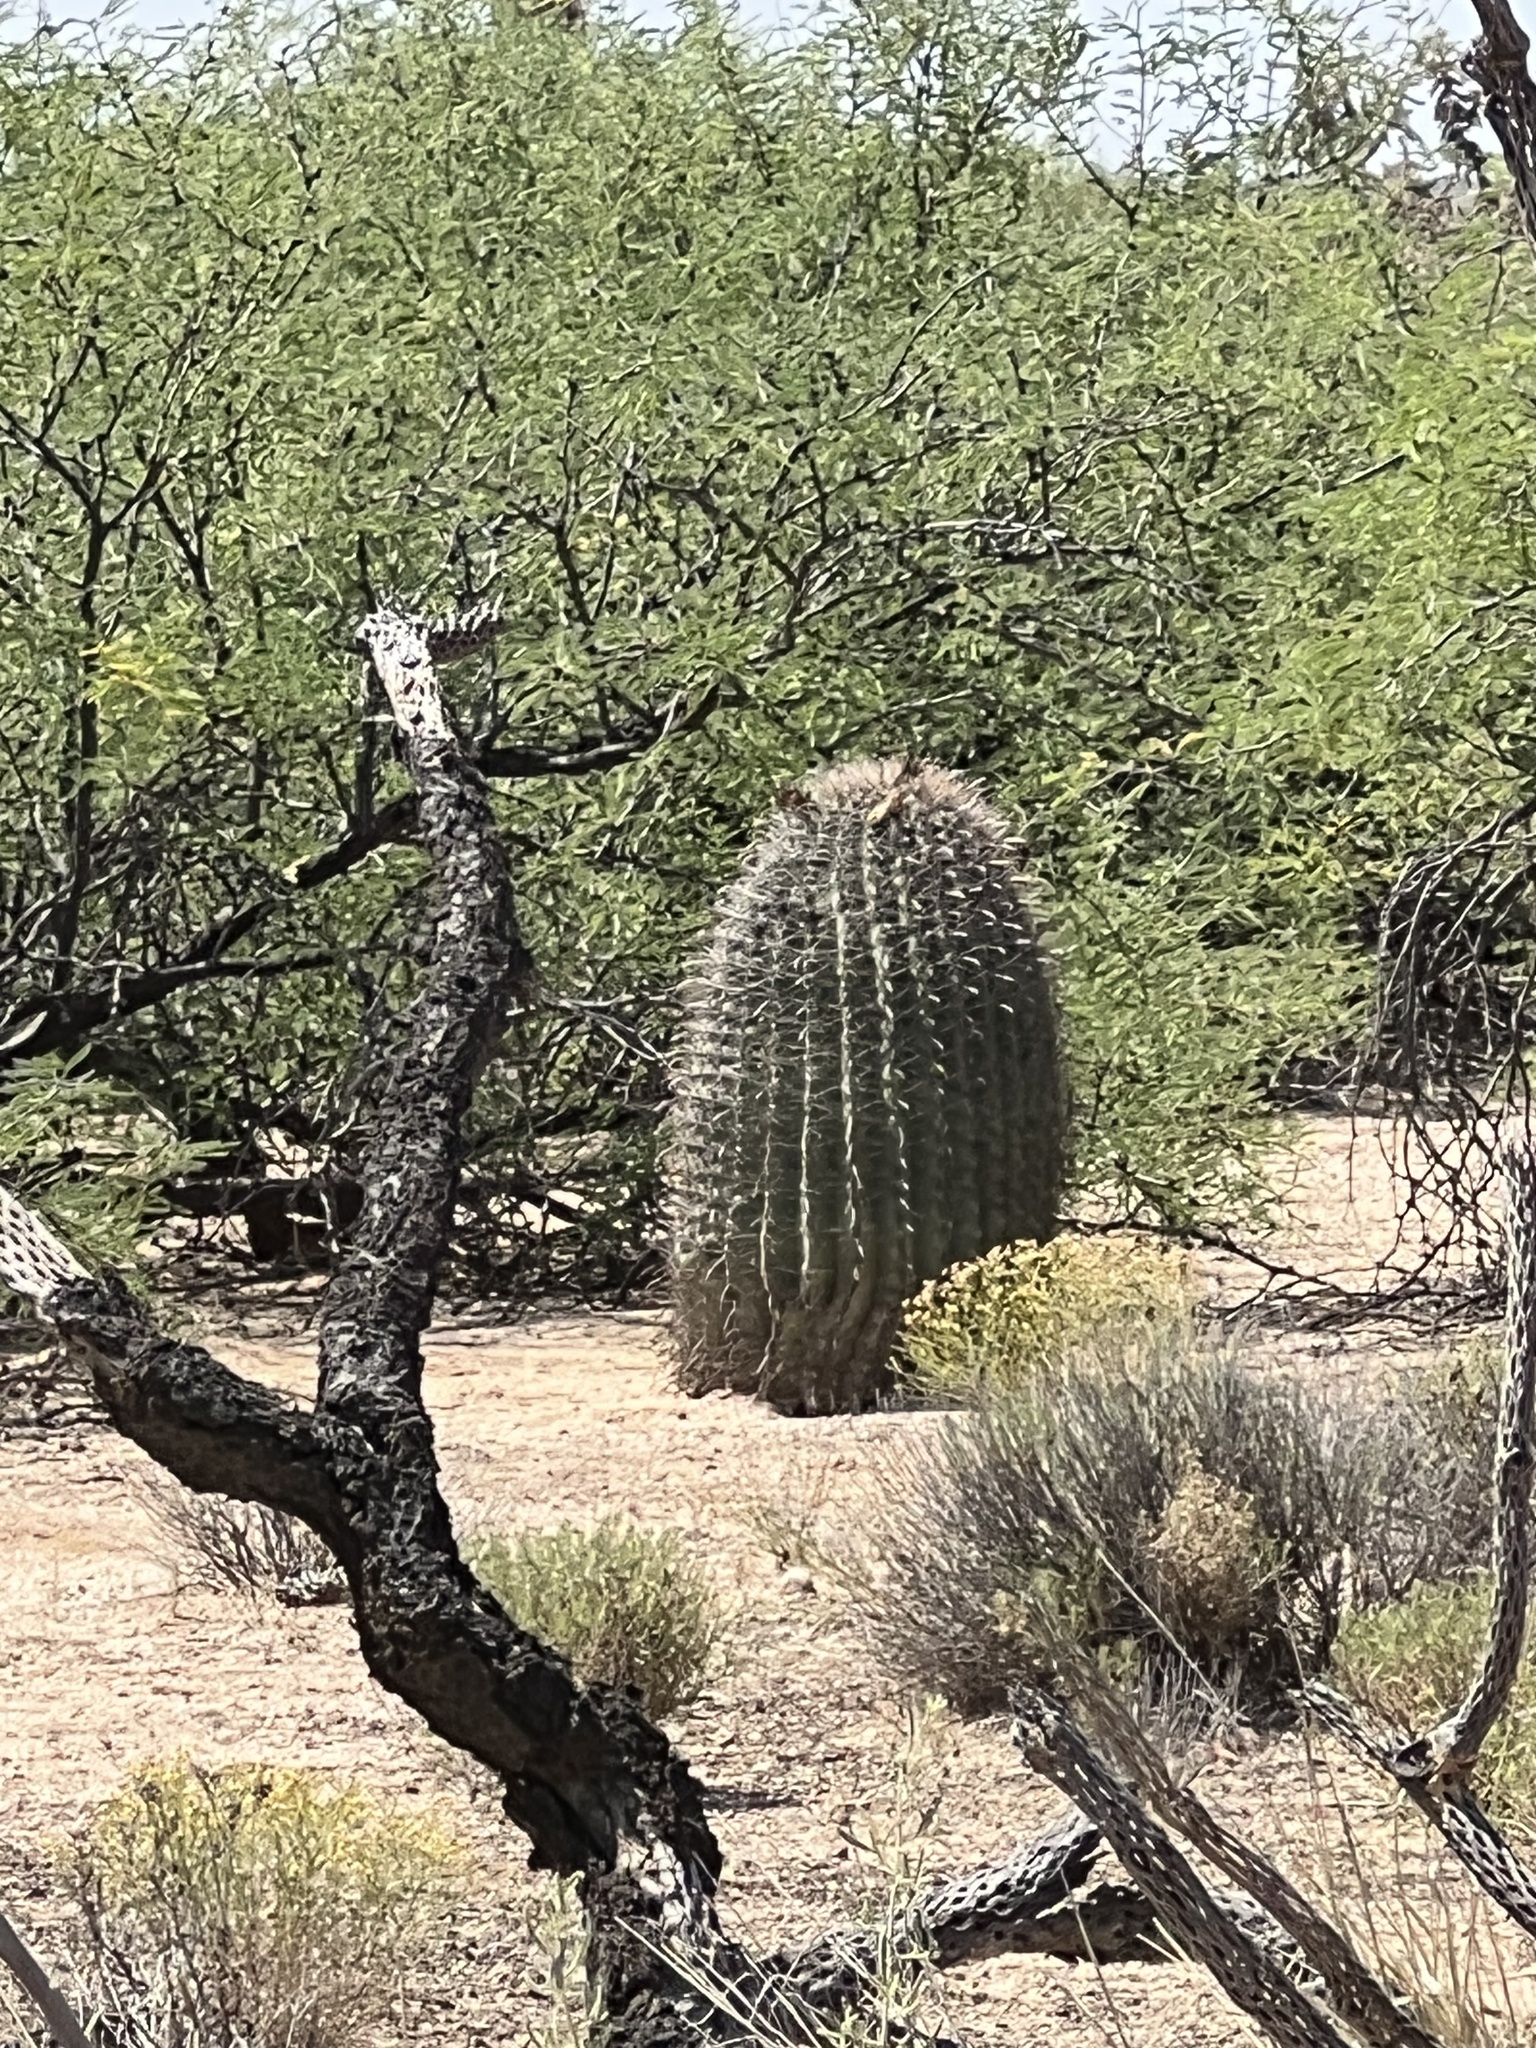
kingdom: Plantae
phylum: Tracheophyta
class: Magnoliopsida
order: Caryophyllales
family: Cactaceae
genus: Ferocactus
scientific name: Ferocactus wislizeni
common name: Candy barrel cactus
